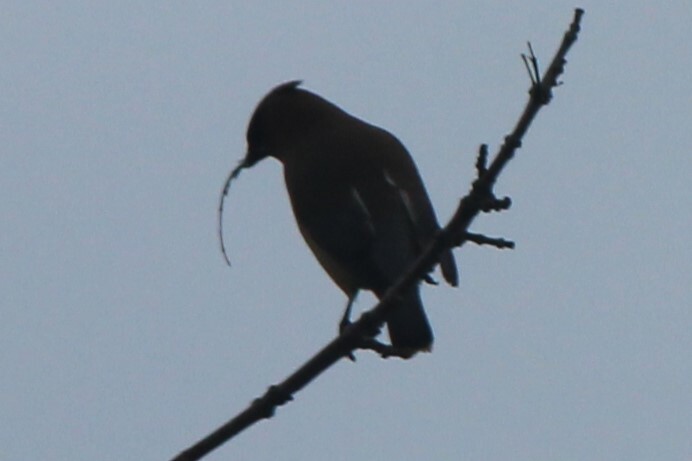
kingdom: Animalia
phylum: Chordata
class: Aves
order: Passeriformes
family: Bombycillidae
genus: Bombycilla
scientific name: Bombycilla cedrorum
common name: Cedar waxwing
